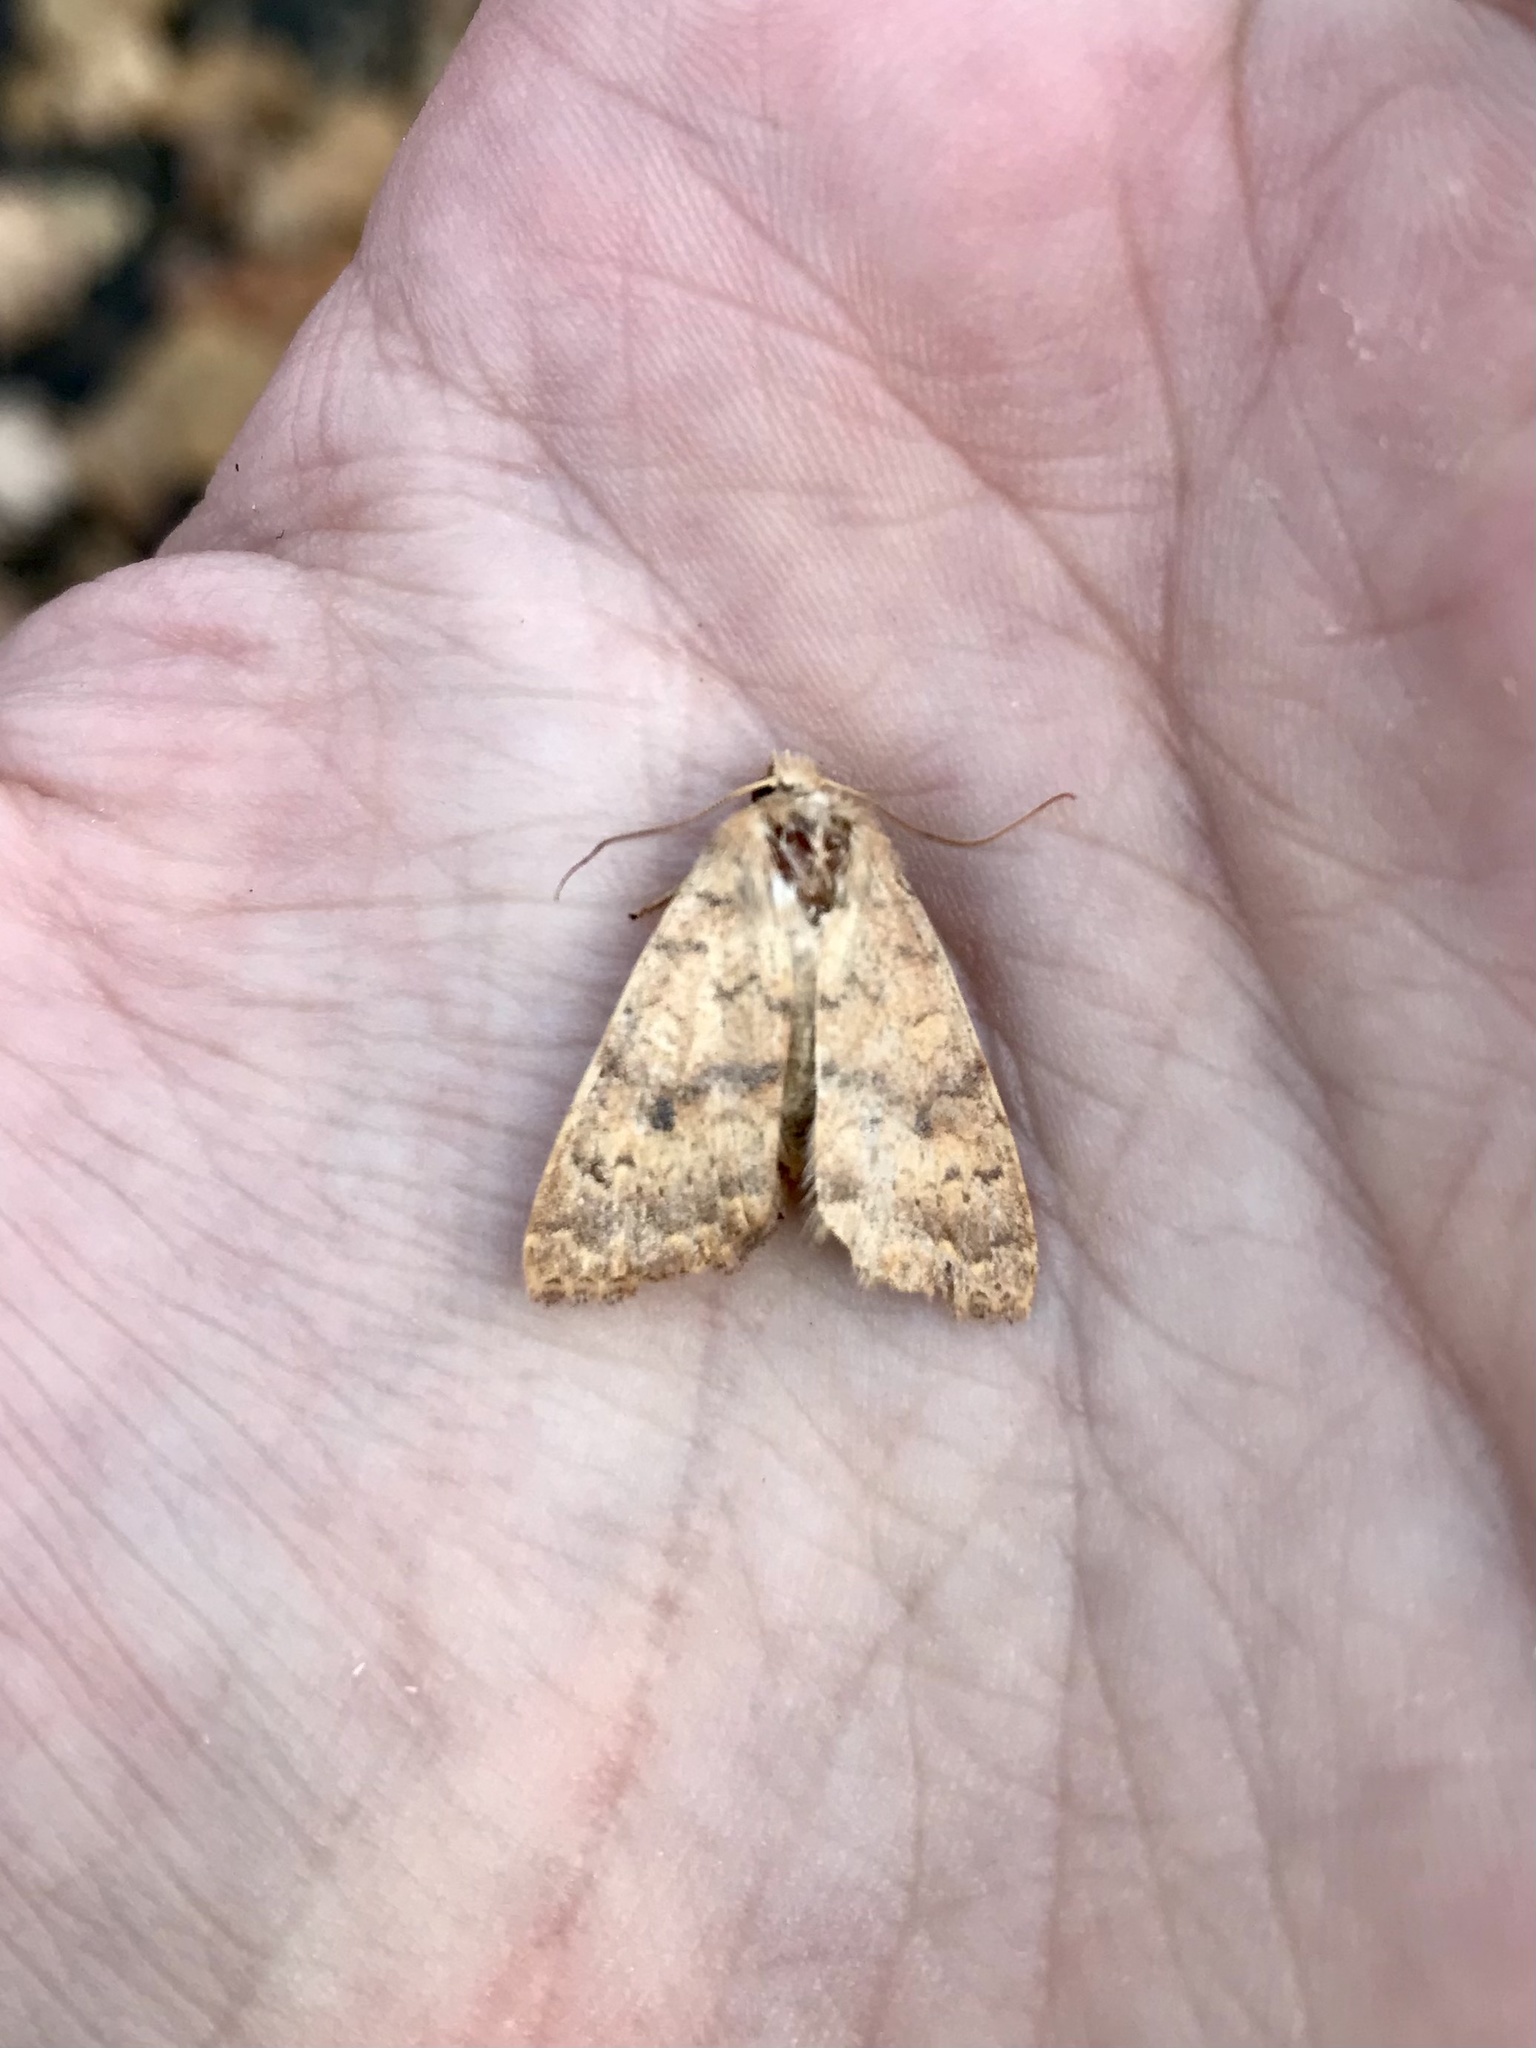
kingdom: Animalia
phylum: Arthropoda
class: Insecta
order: Lepidoptera
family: Noctuidae
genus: Agrochola
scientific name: Agrochola bicolorago
